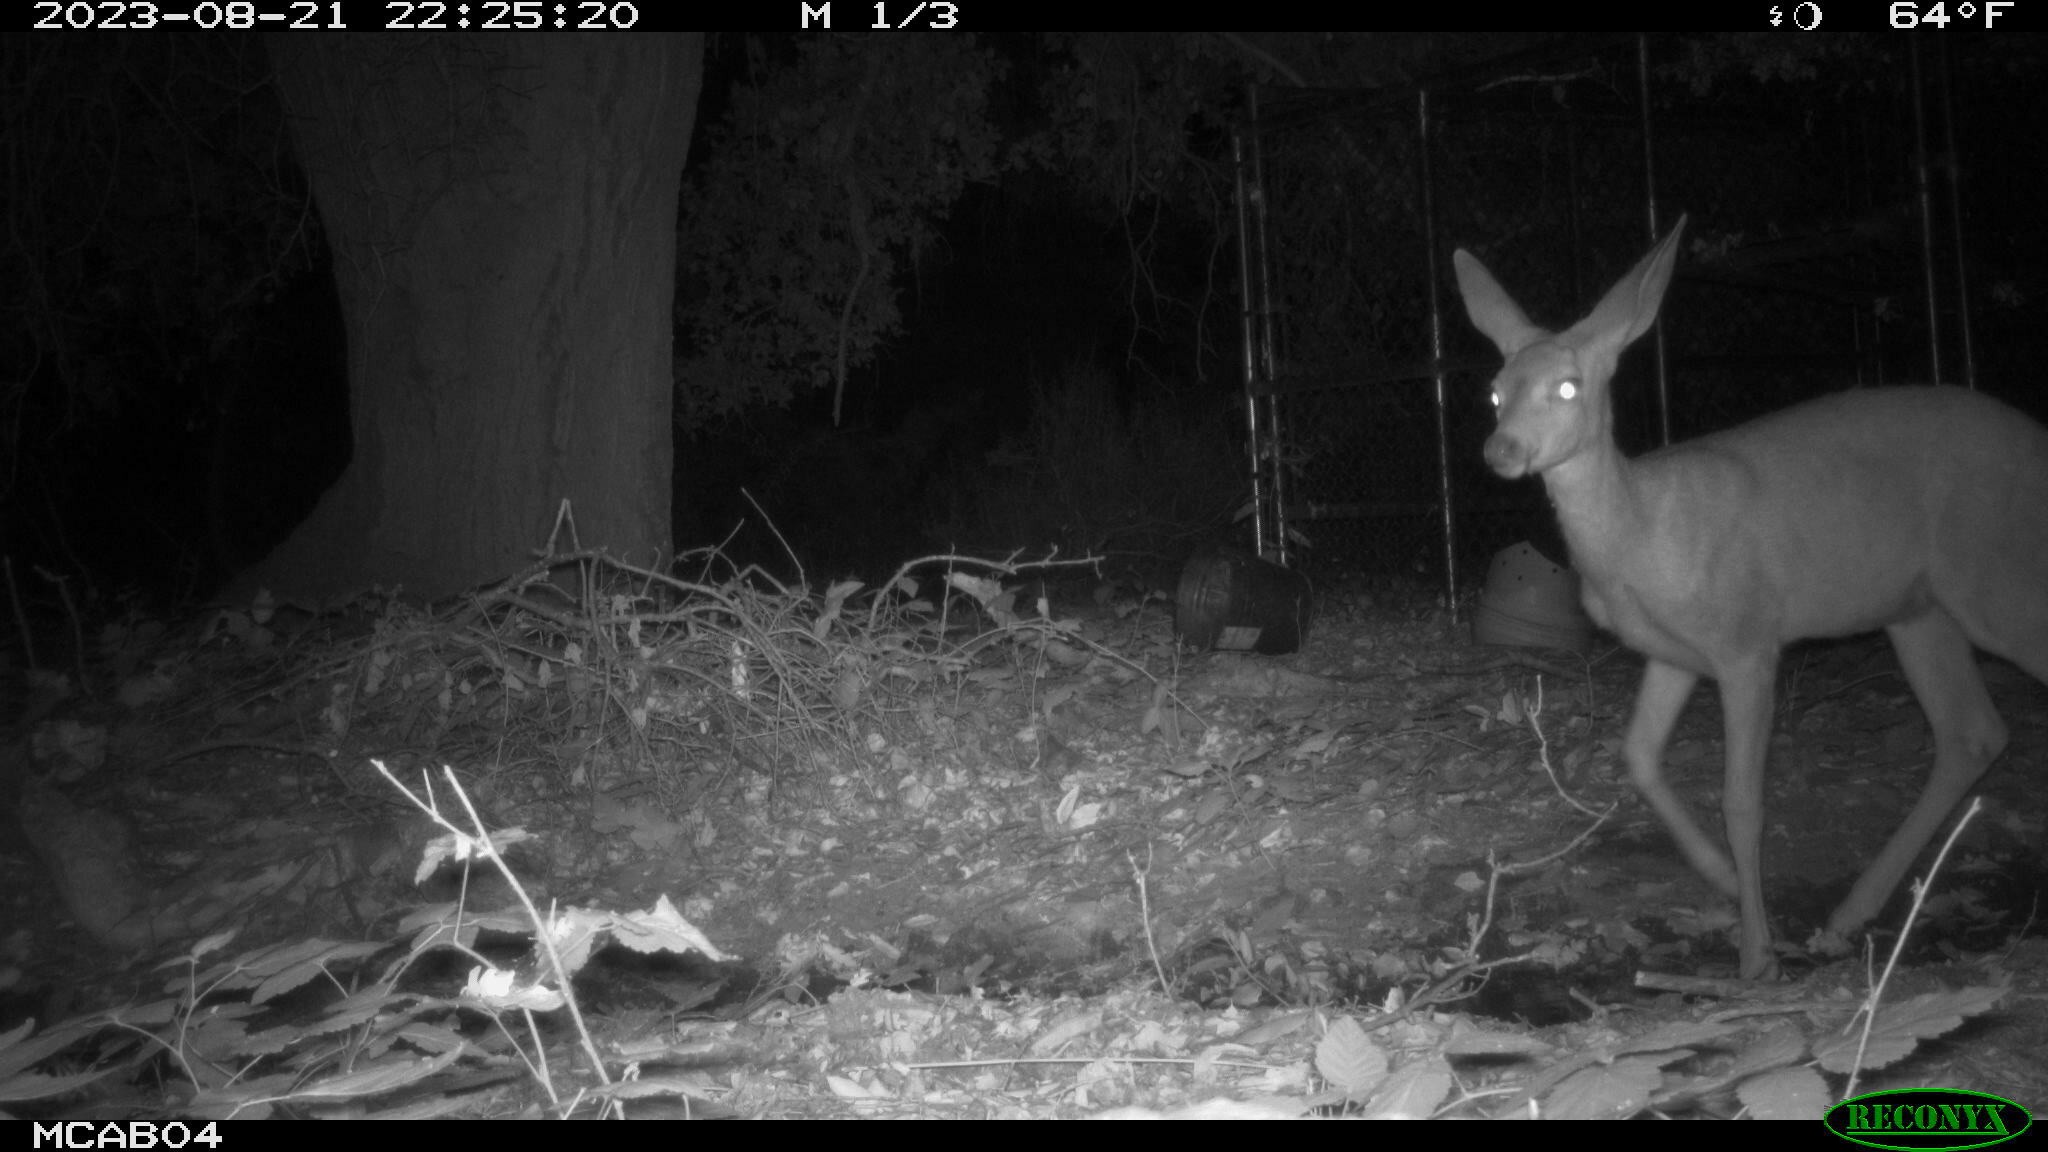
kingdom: Animalia
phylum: Chordata
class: Mammalia
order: Artiodactyla
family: Cervidae
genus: Odocoileus
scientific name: Odocoileus hemionus
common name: Mule deer
